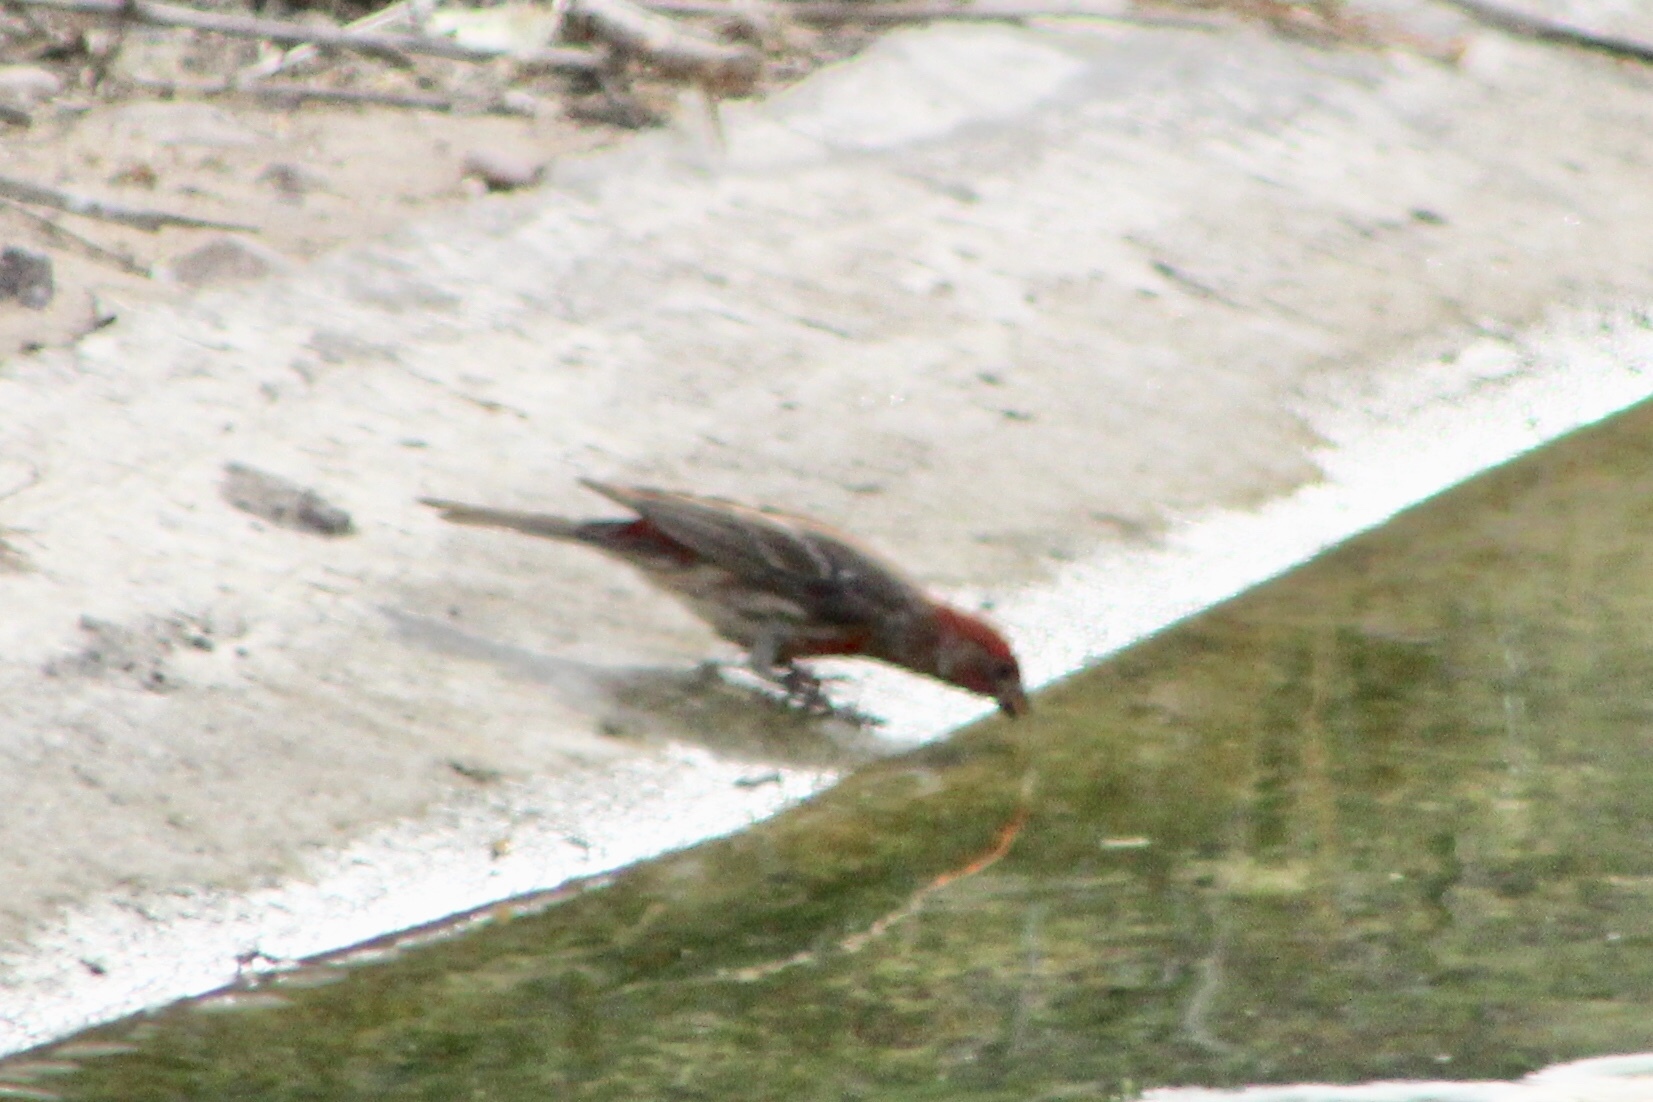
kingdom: Animalia
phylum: Chordata
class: Aves
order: Passeriformes
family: Fringillidae
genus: Haemorhous
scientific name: Haemorhous mexicanus
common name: House finch
